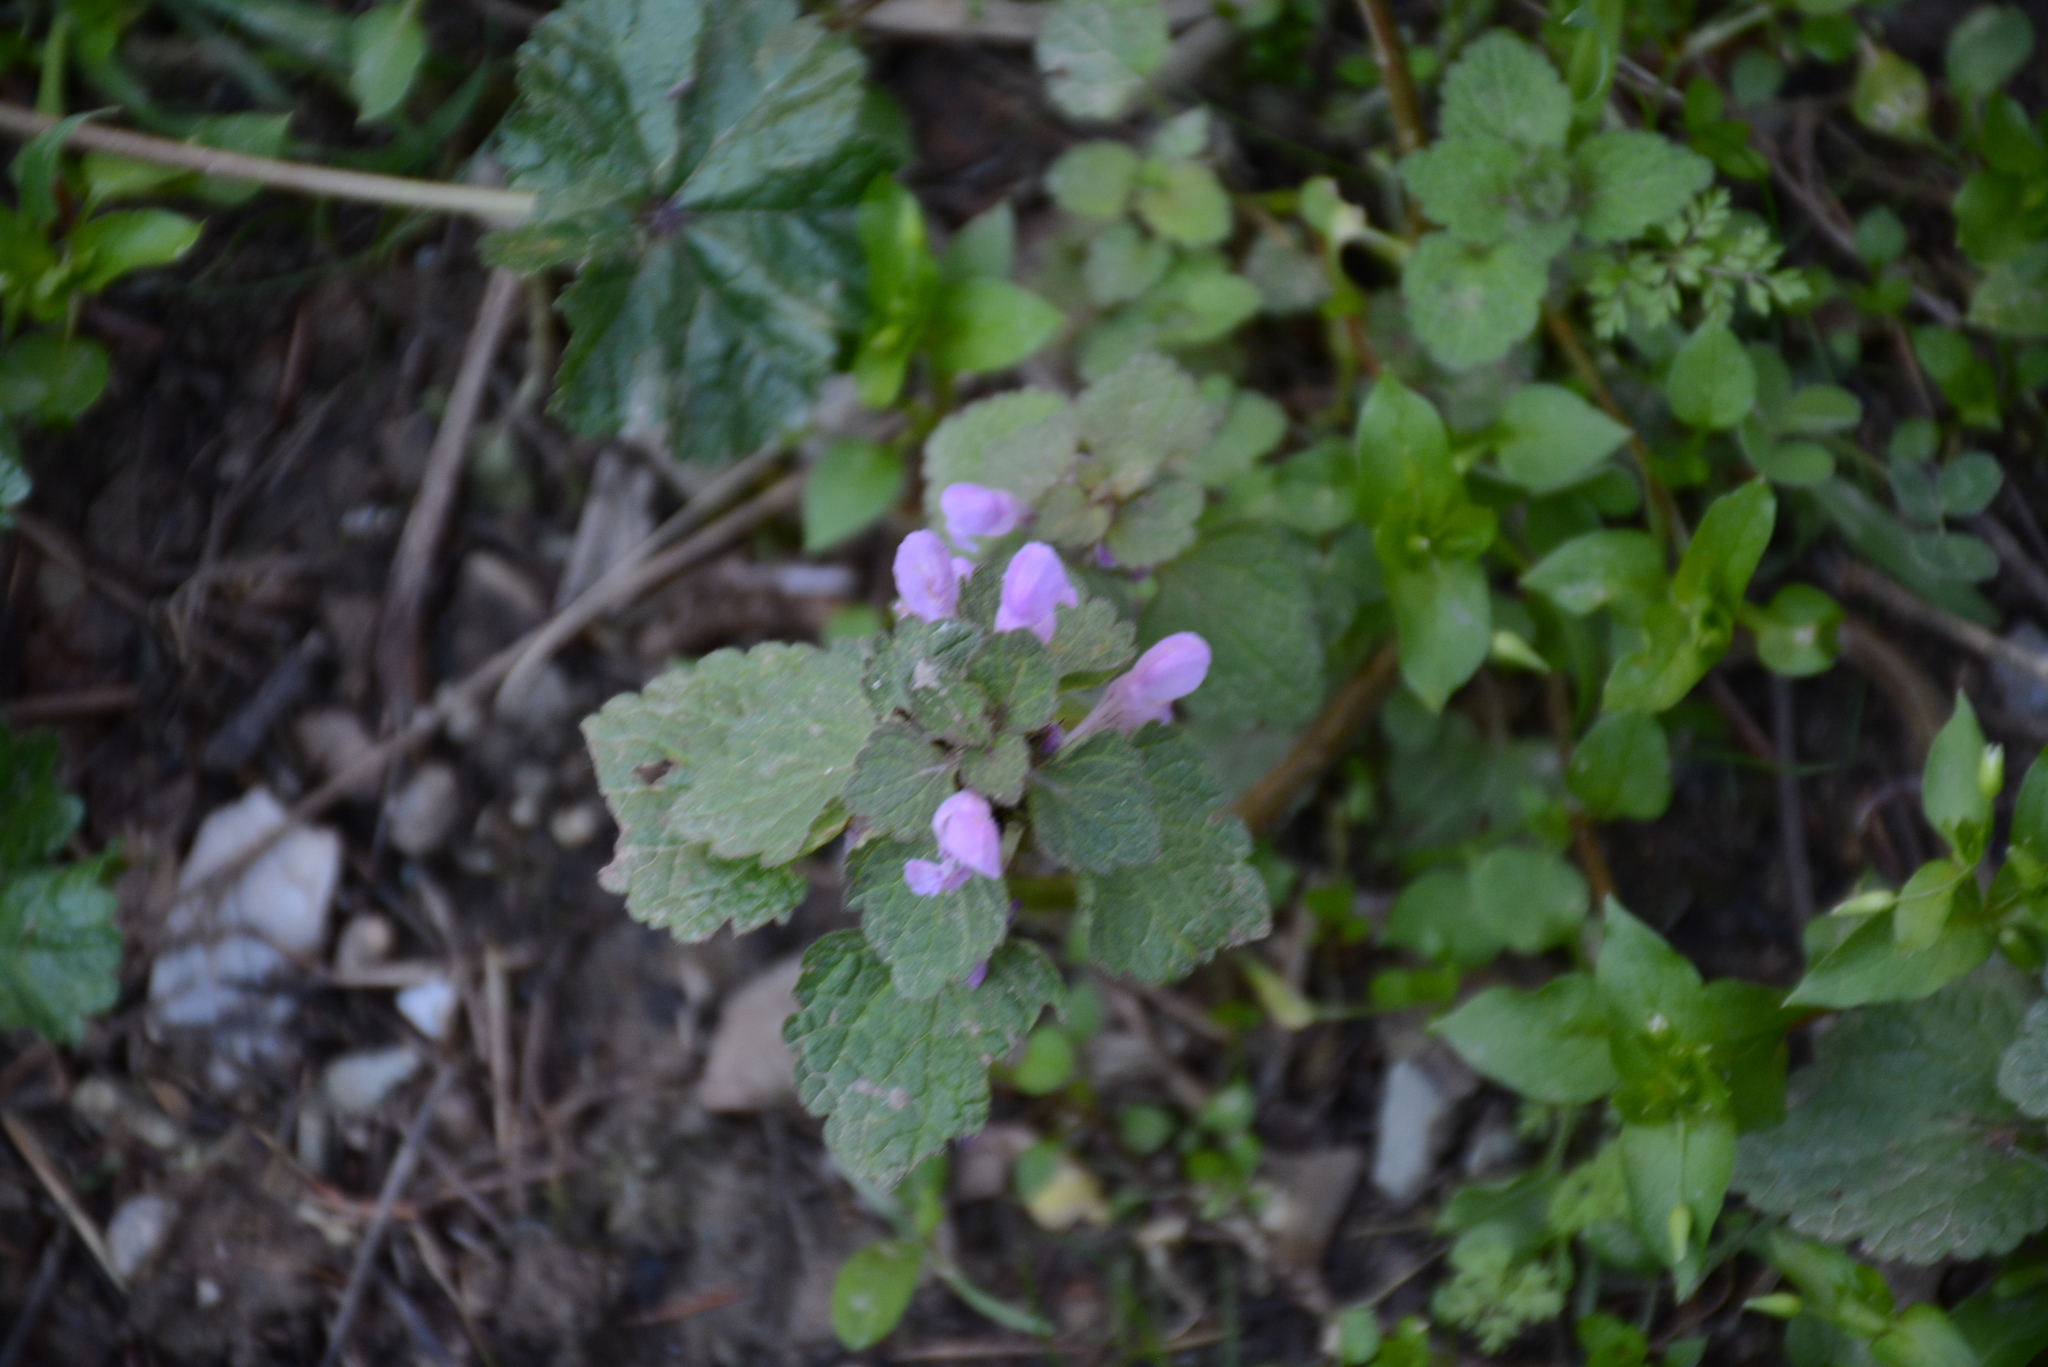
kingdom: Plantae
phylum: Tracheophyta
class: Magnoliopsida
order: Lamiales
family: Lamiaceae
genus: Lamium
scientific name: Lamium purpureum
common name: Red dead-nettle
